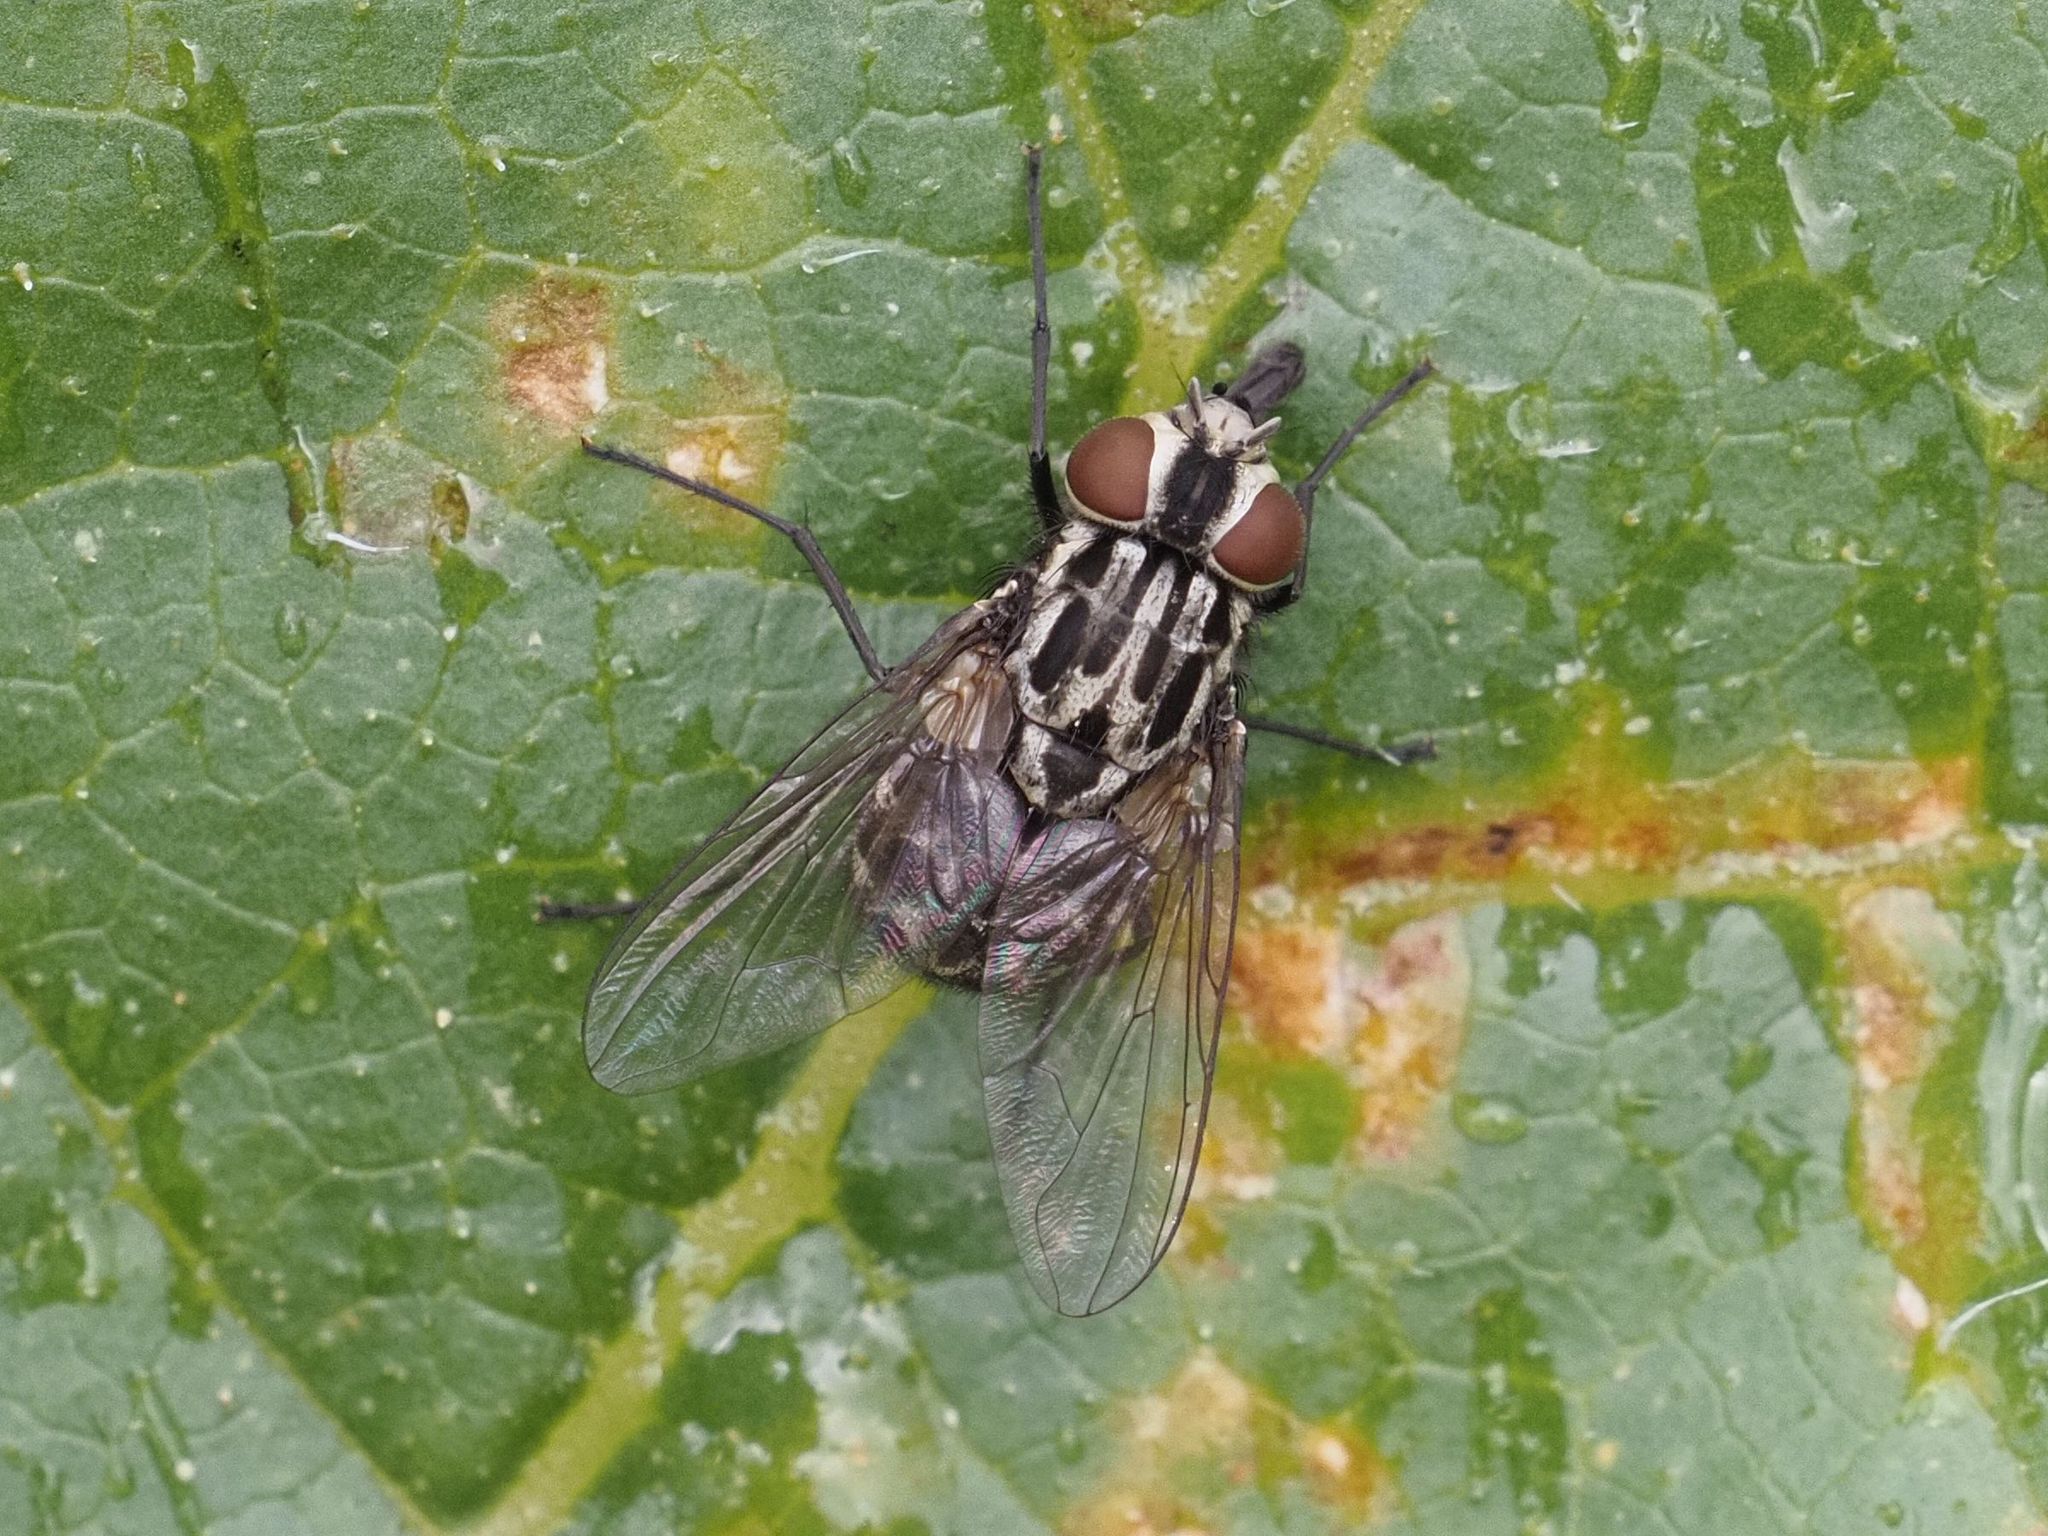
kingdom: Animalia
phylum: Arthropoda
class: Insecta
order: Diptera
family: Muscidae
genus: Graphomya
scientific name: Graphomya maculata
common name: Muscid fly
